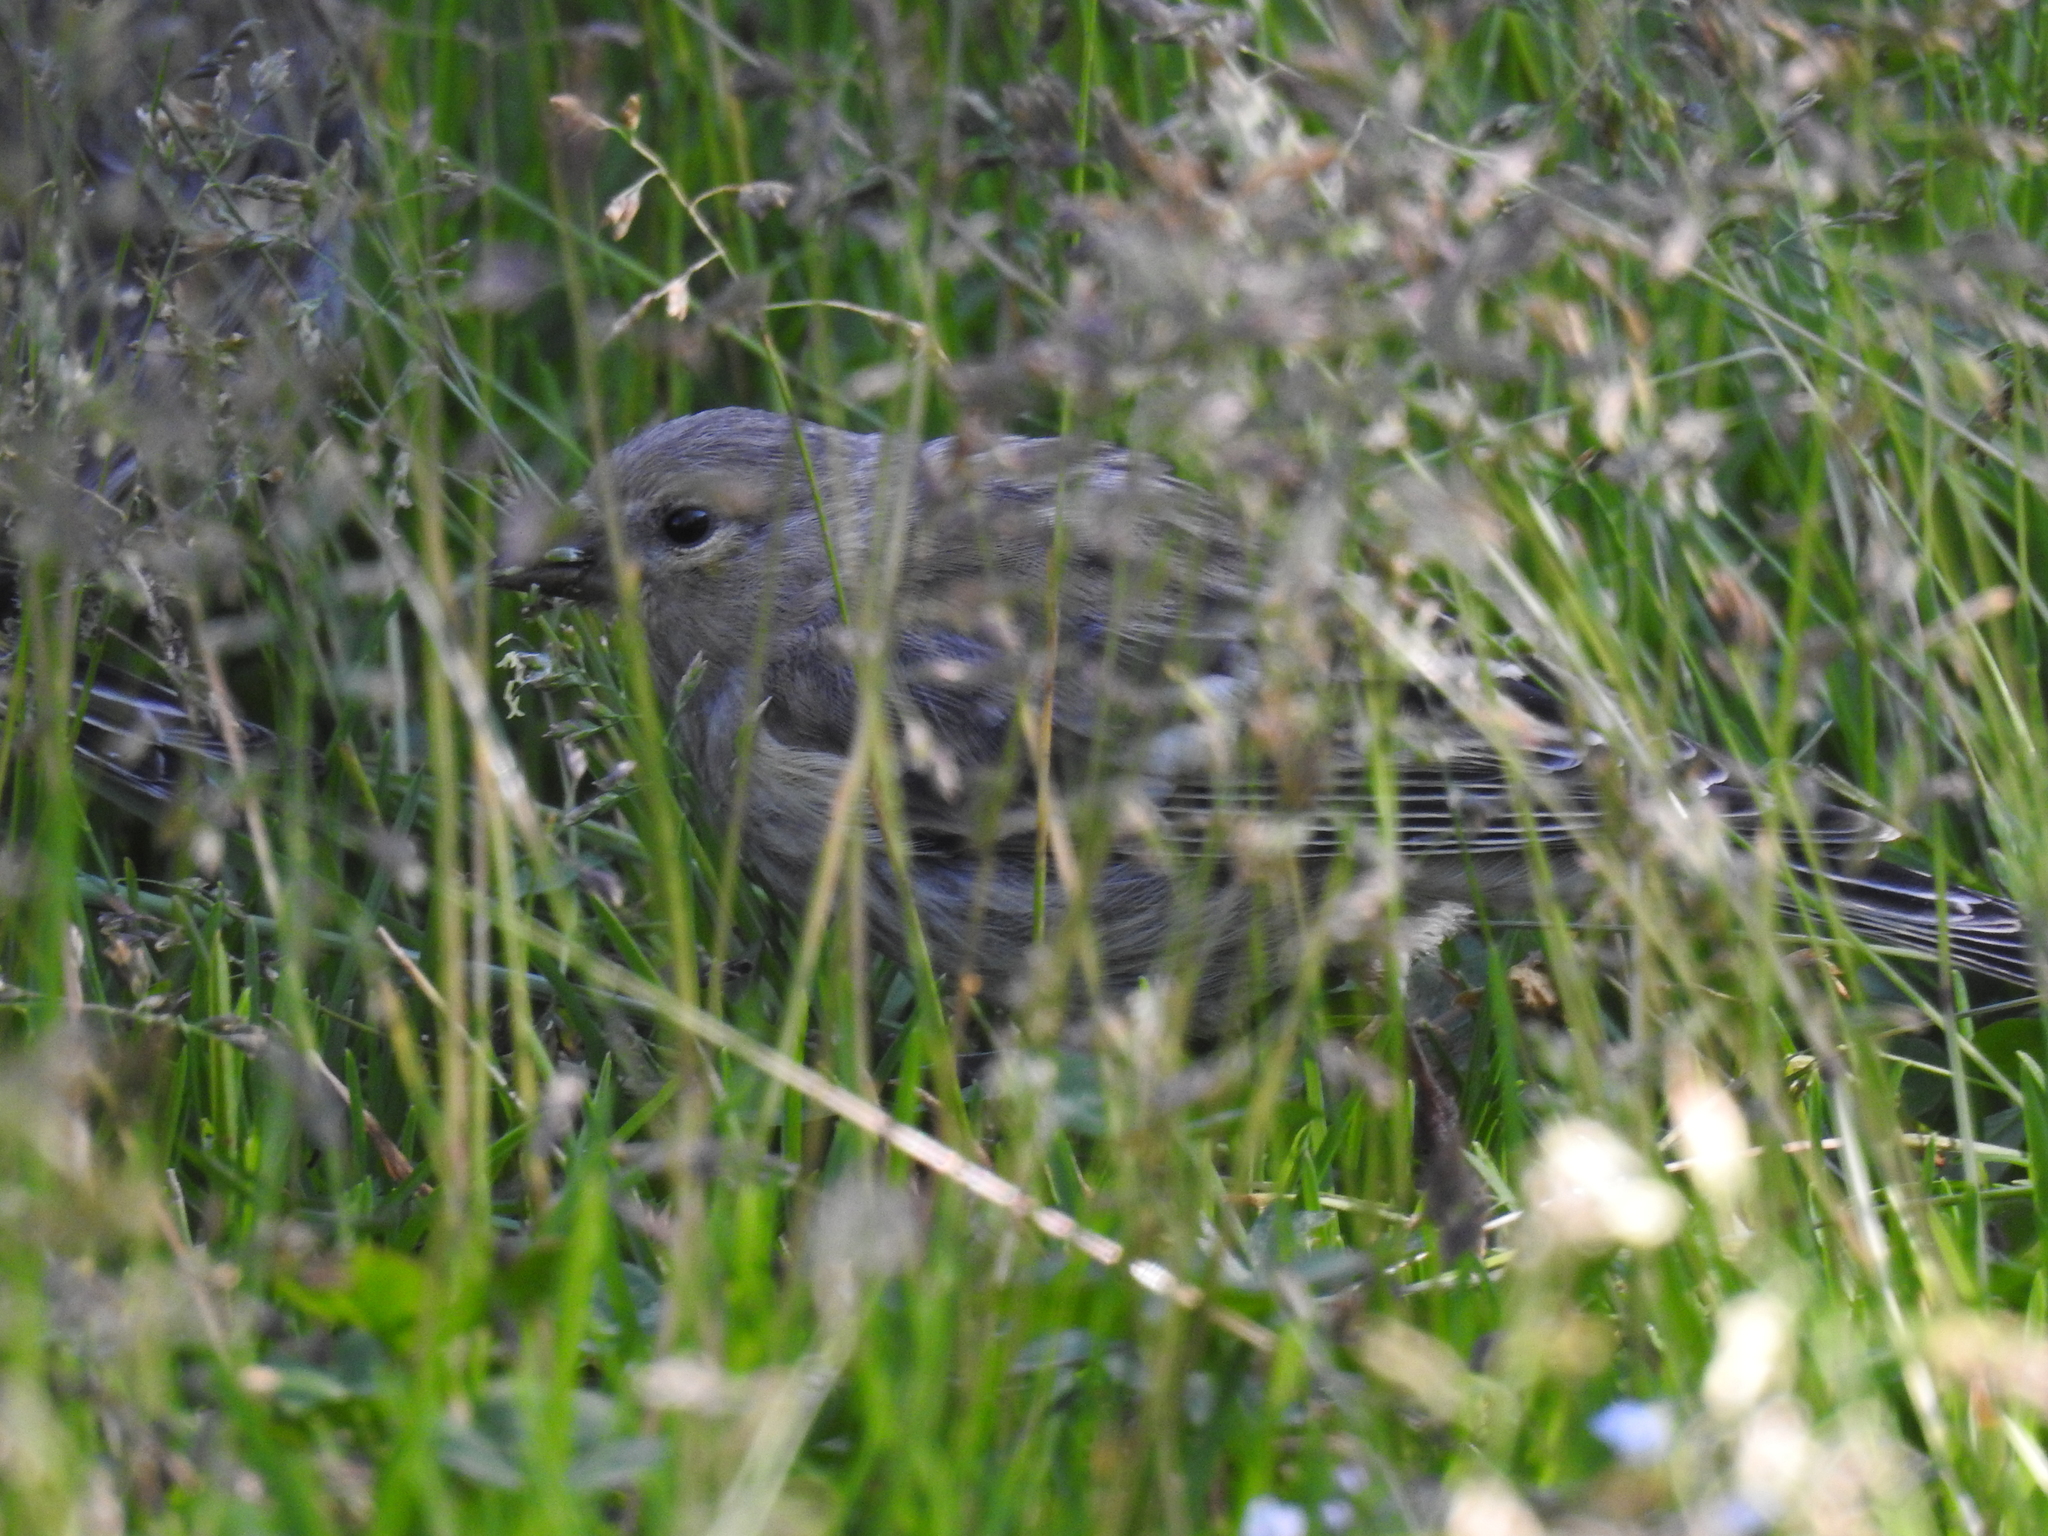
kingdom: Animalia
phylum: Chordata
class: Aves
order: Passeriformes
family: Fringillidae
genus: Carduelis
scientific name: Carduelis citrinella
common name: Citril finch
